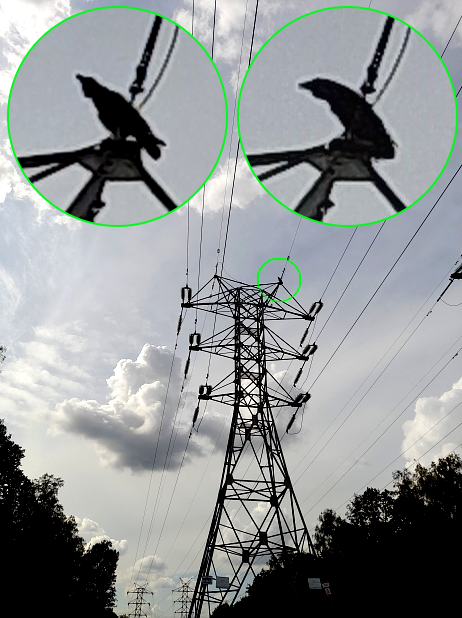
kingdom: Animalia
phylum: Chordata
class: Aves
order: Passeriformes
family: Corvidae
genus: Corvus
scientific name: Corvus corax
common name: Common raven
